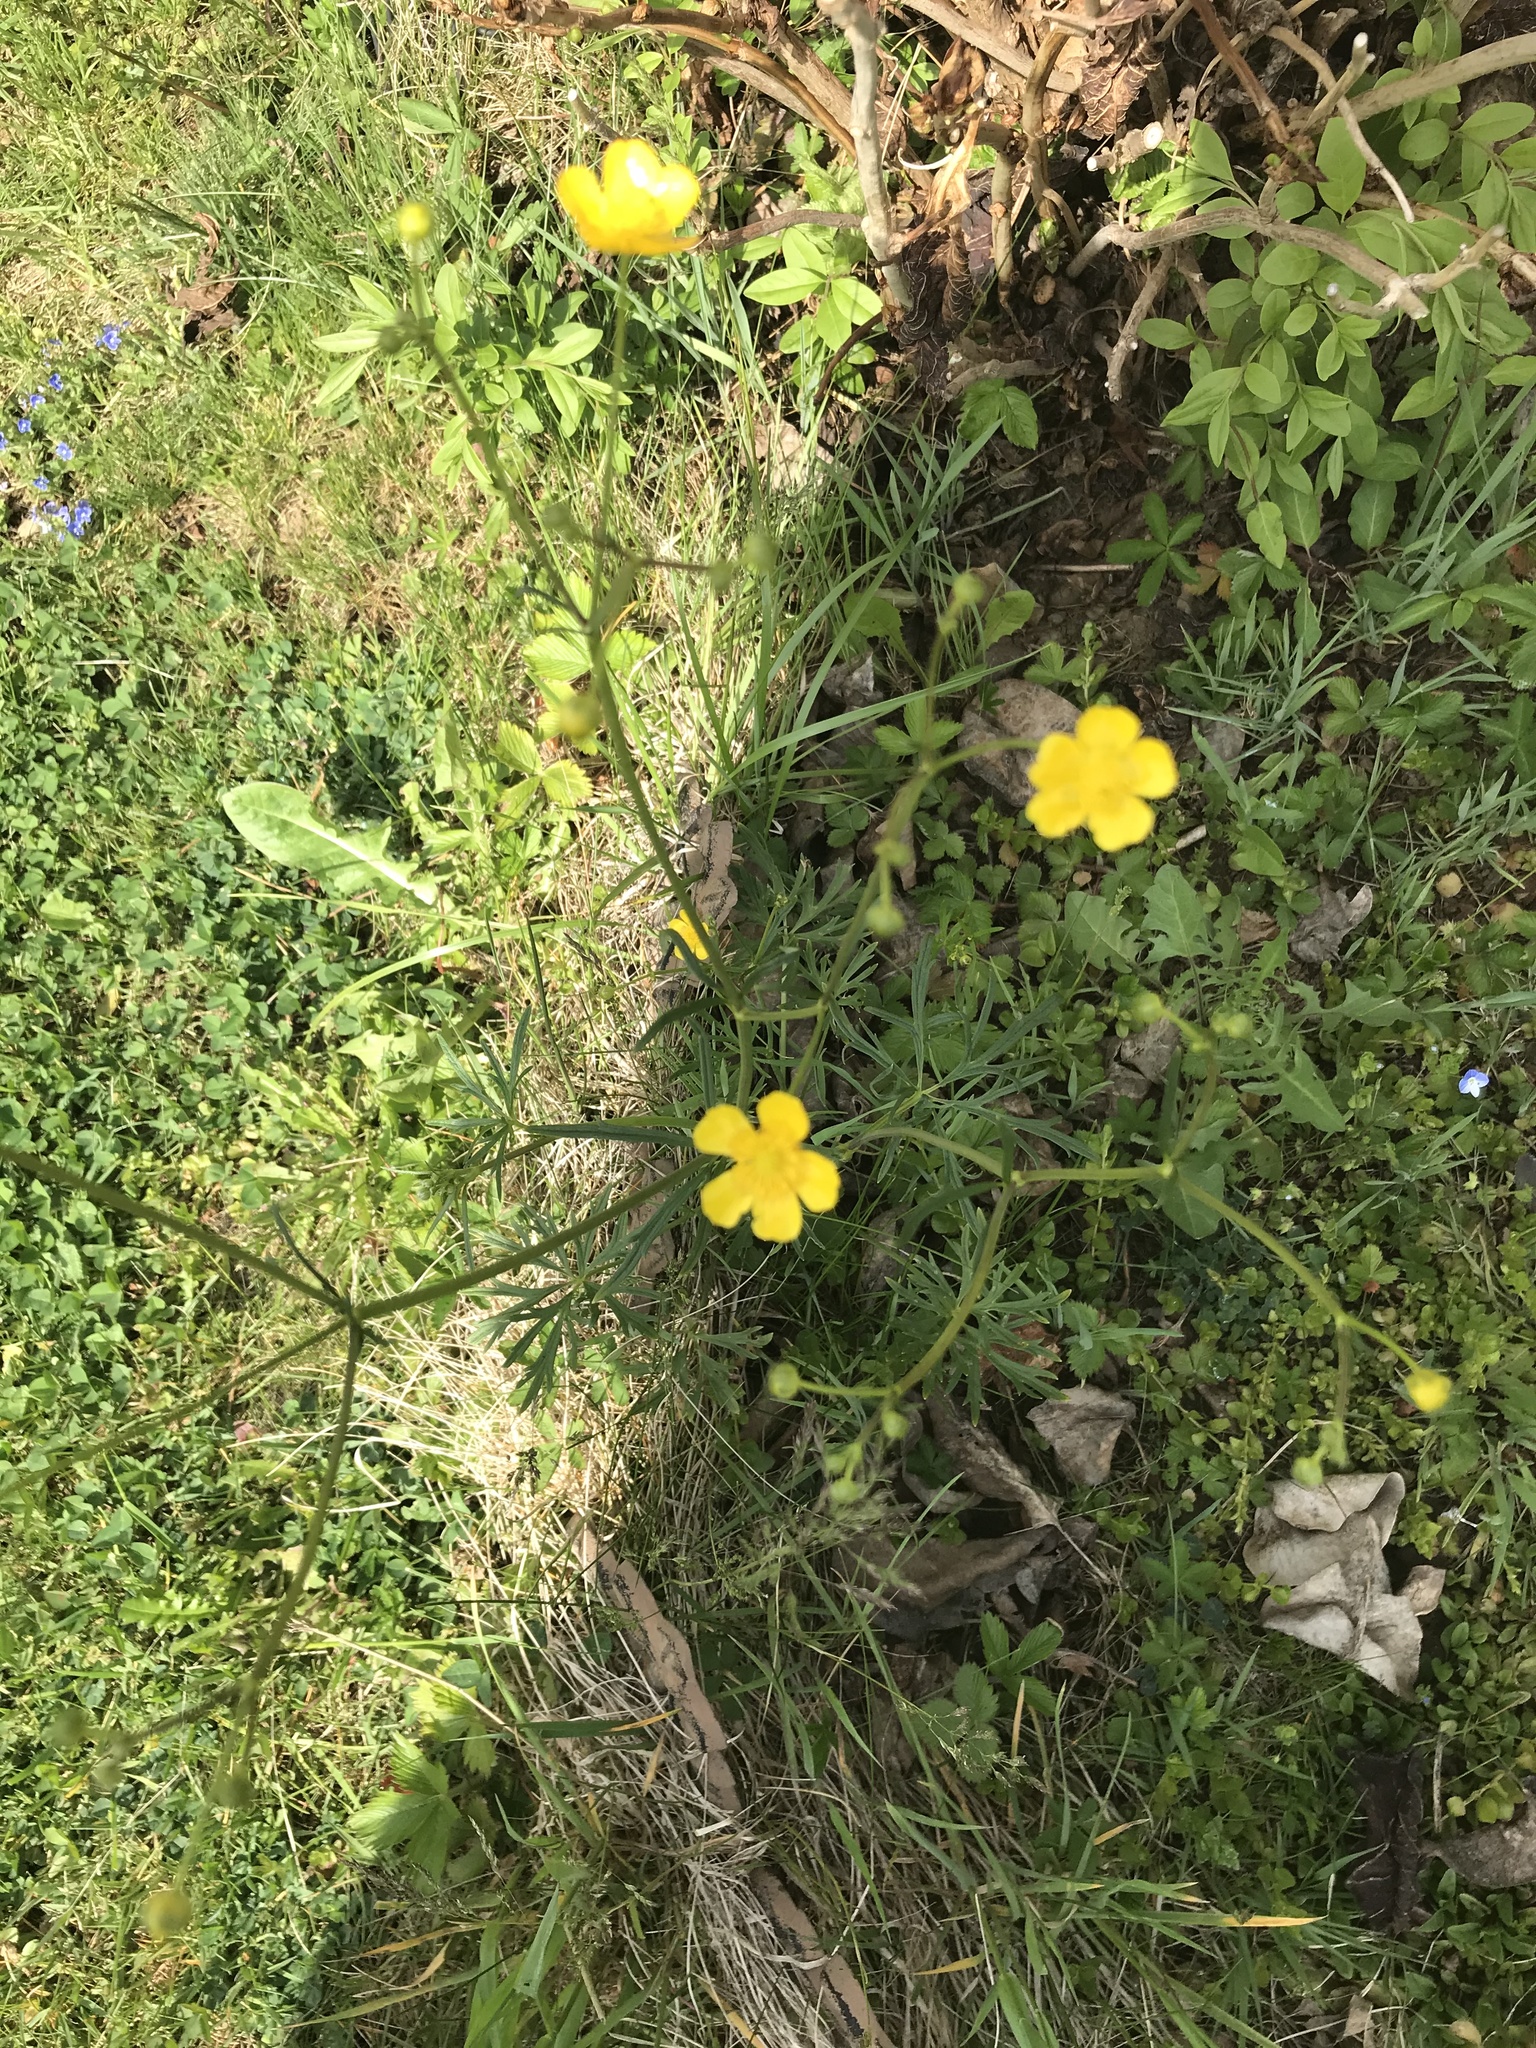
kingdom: Plantae
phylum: Tracheophyta
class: Magnoliopsida
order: Ranunculales
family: Ranunculaceae
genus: Ranunculus
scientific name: Ranunculus acris
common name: Meadow buttercup
